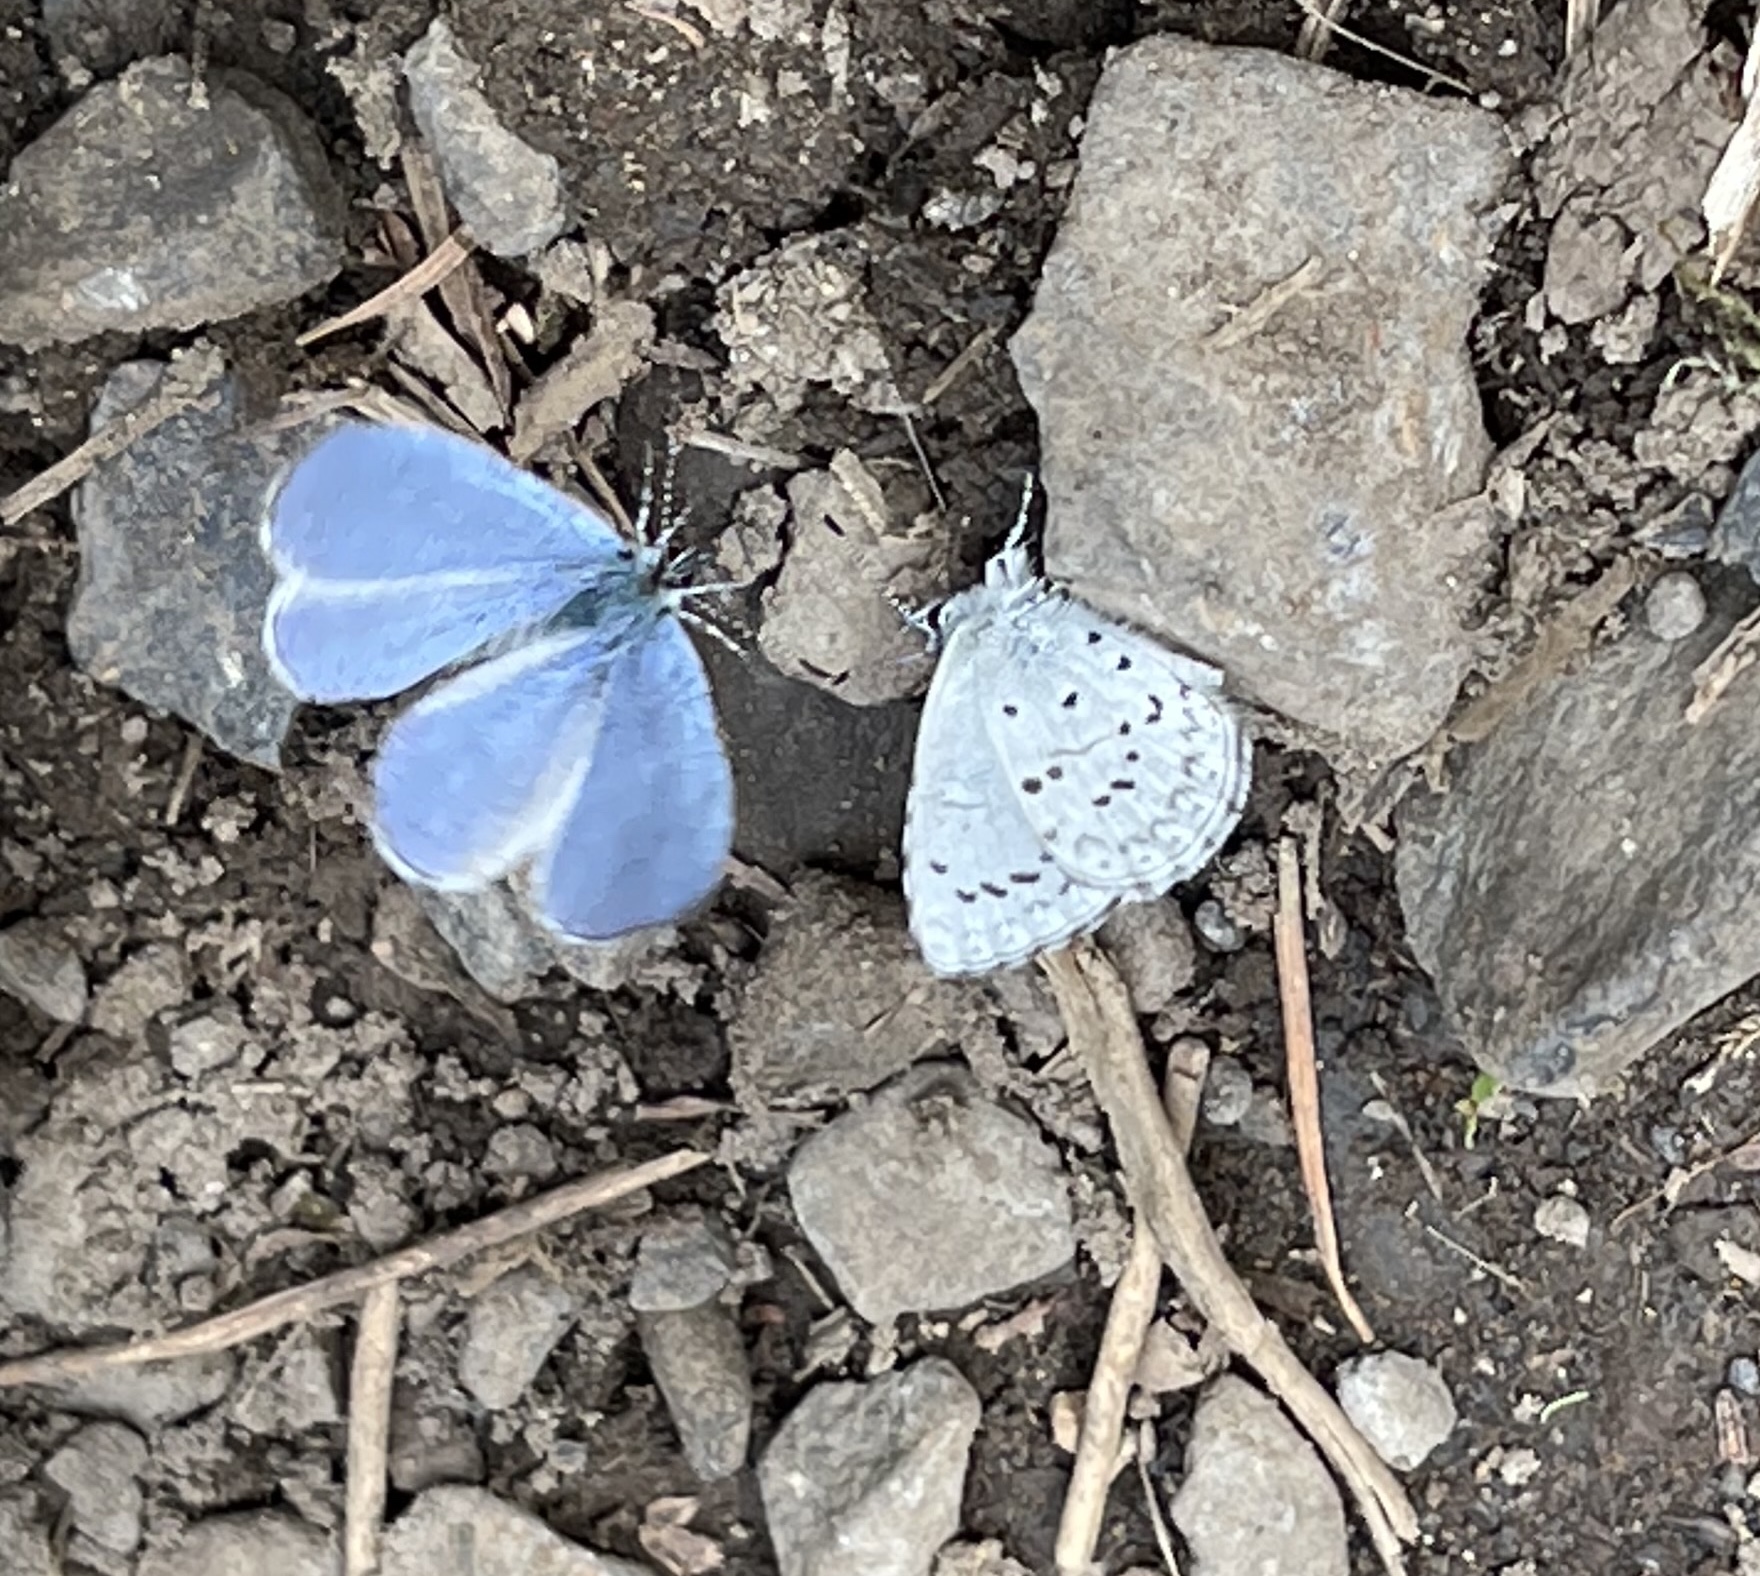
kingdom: Animalia
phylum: Arthropoda
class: Insecta
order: Lepidoptera
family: Lycaenidae
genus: Celastrina
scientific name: Celastrina ladon
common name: Spring azure
